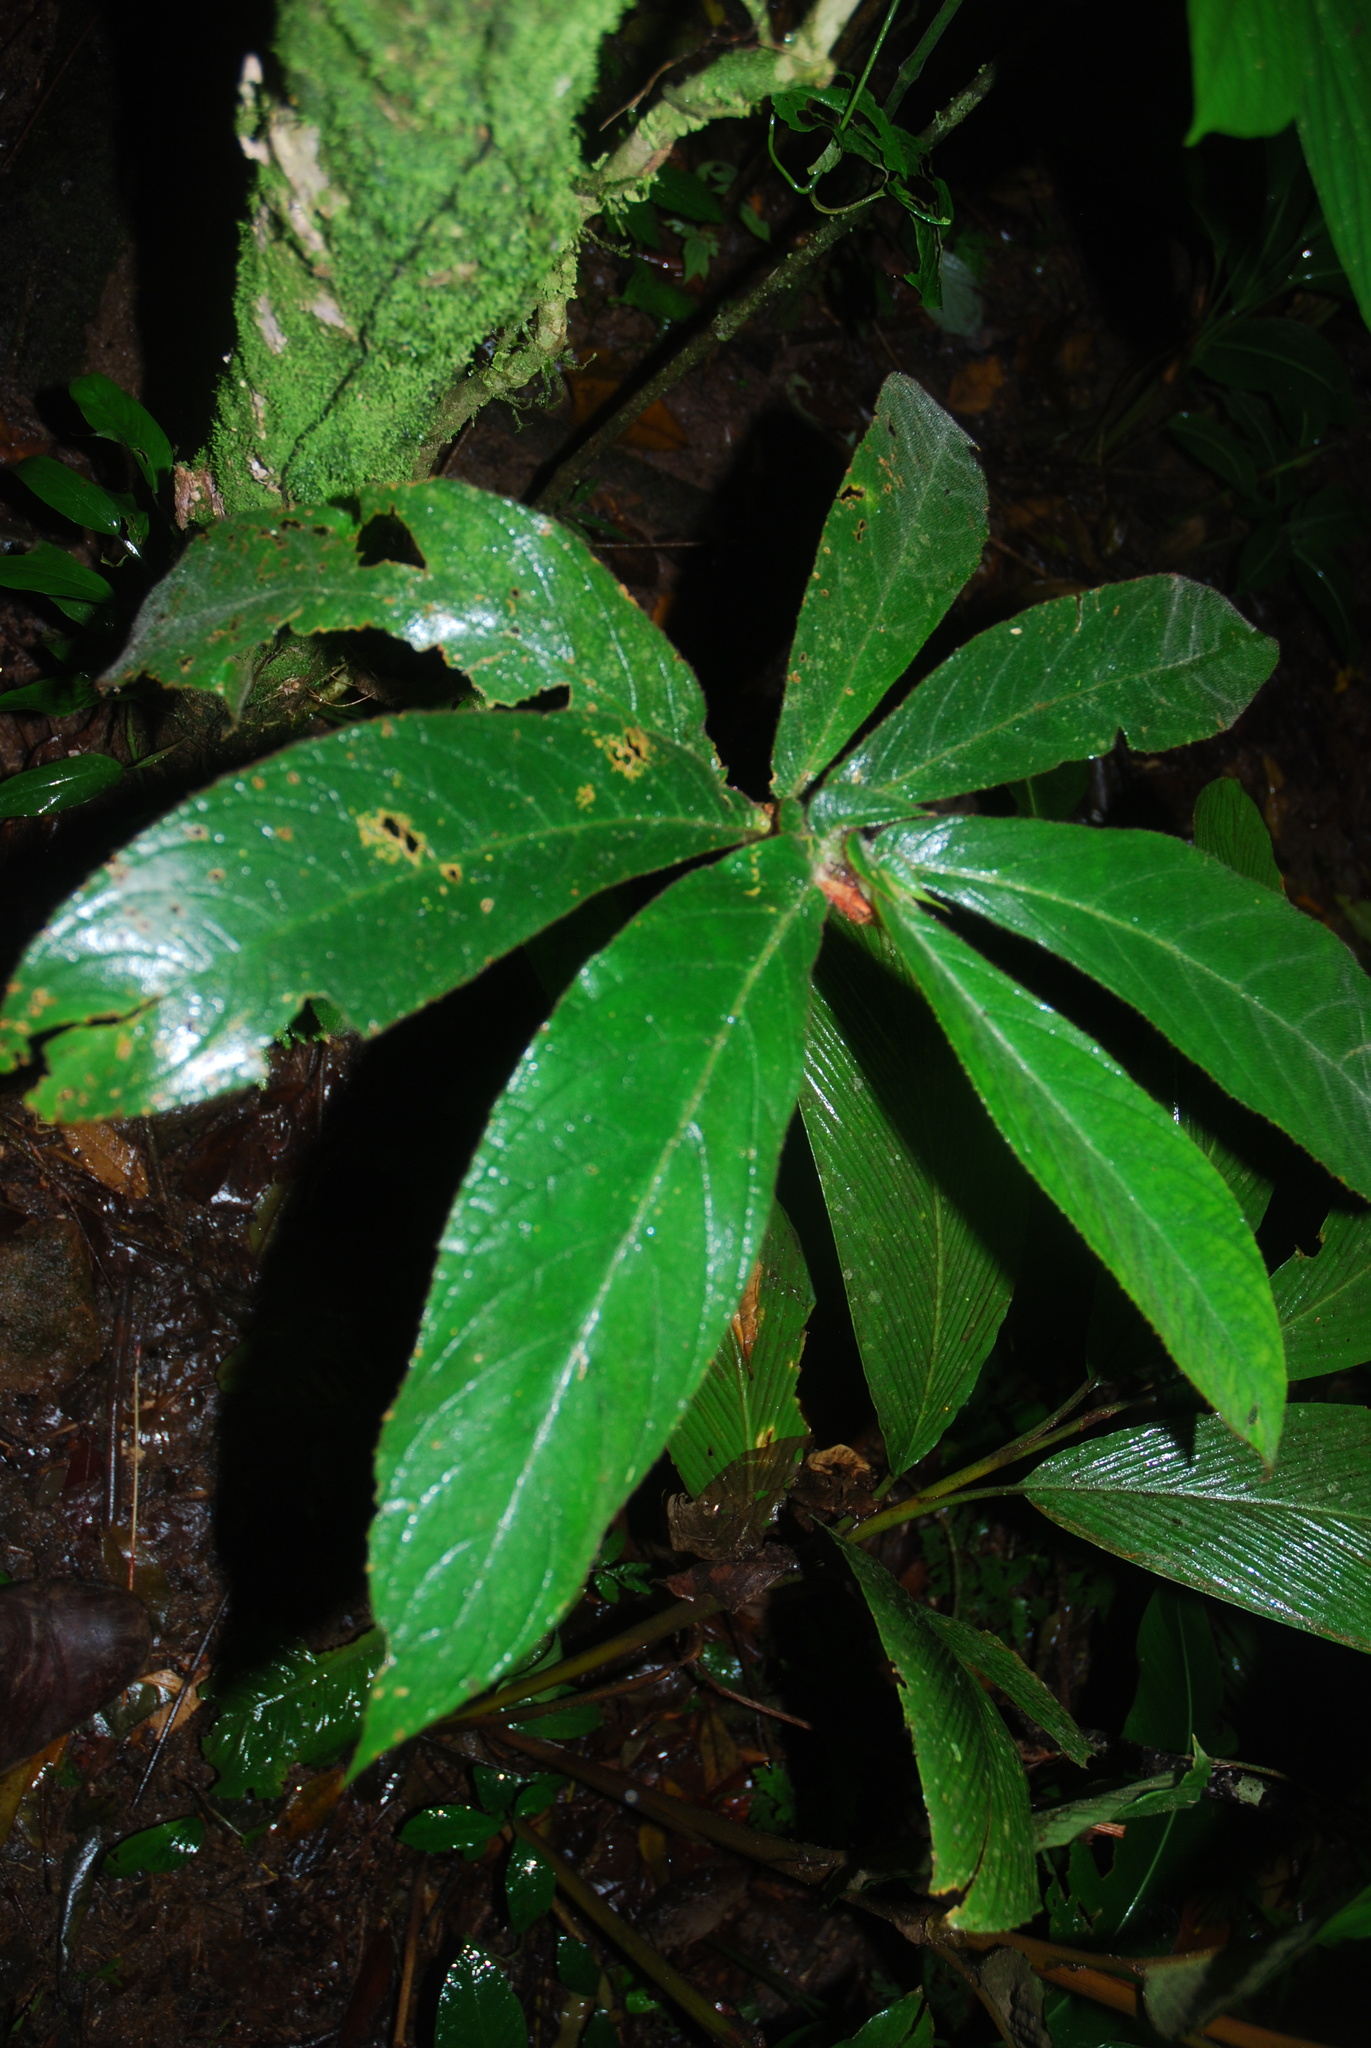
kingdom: Plantae
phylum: Tracheophyta
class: Magnoliopsida
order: Lamiales
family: Gesneriaceae
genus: Columnea
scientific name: Columnea purpurata
